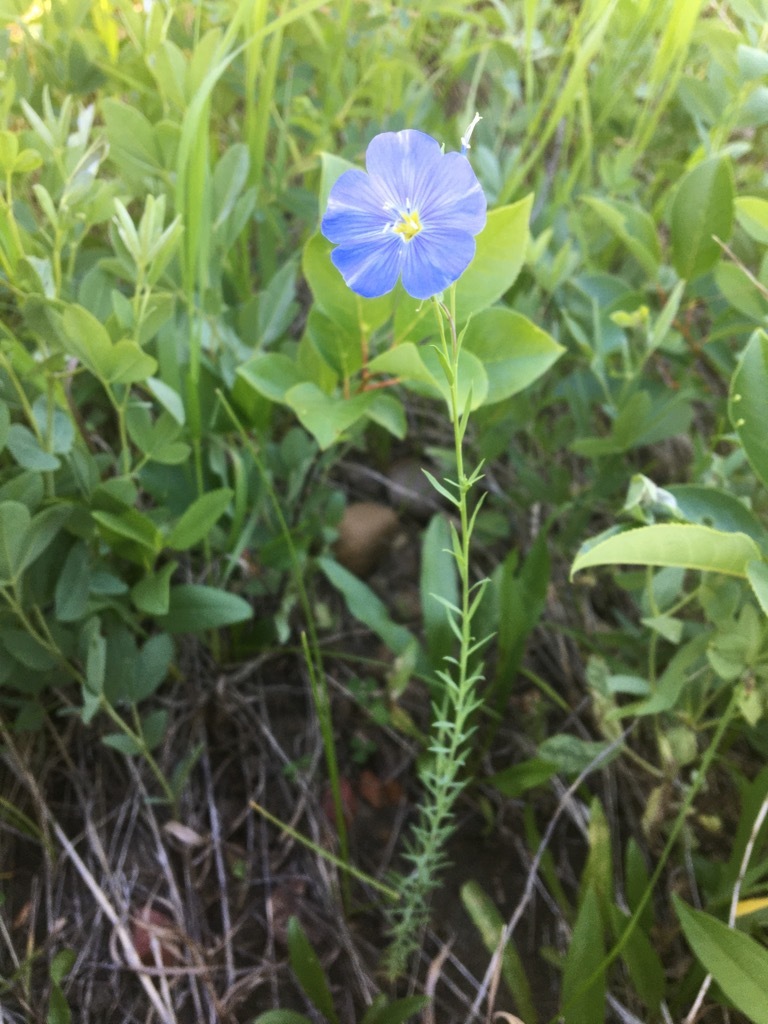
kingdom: Plantae
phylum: Tracheophyta
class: Magnoliopsida
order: Malpighiales
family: Linaceae
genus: Linum
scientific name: Linum lewisii
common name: Prairie flax
